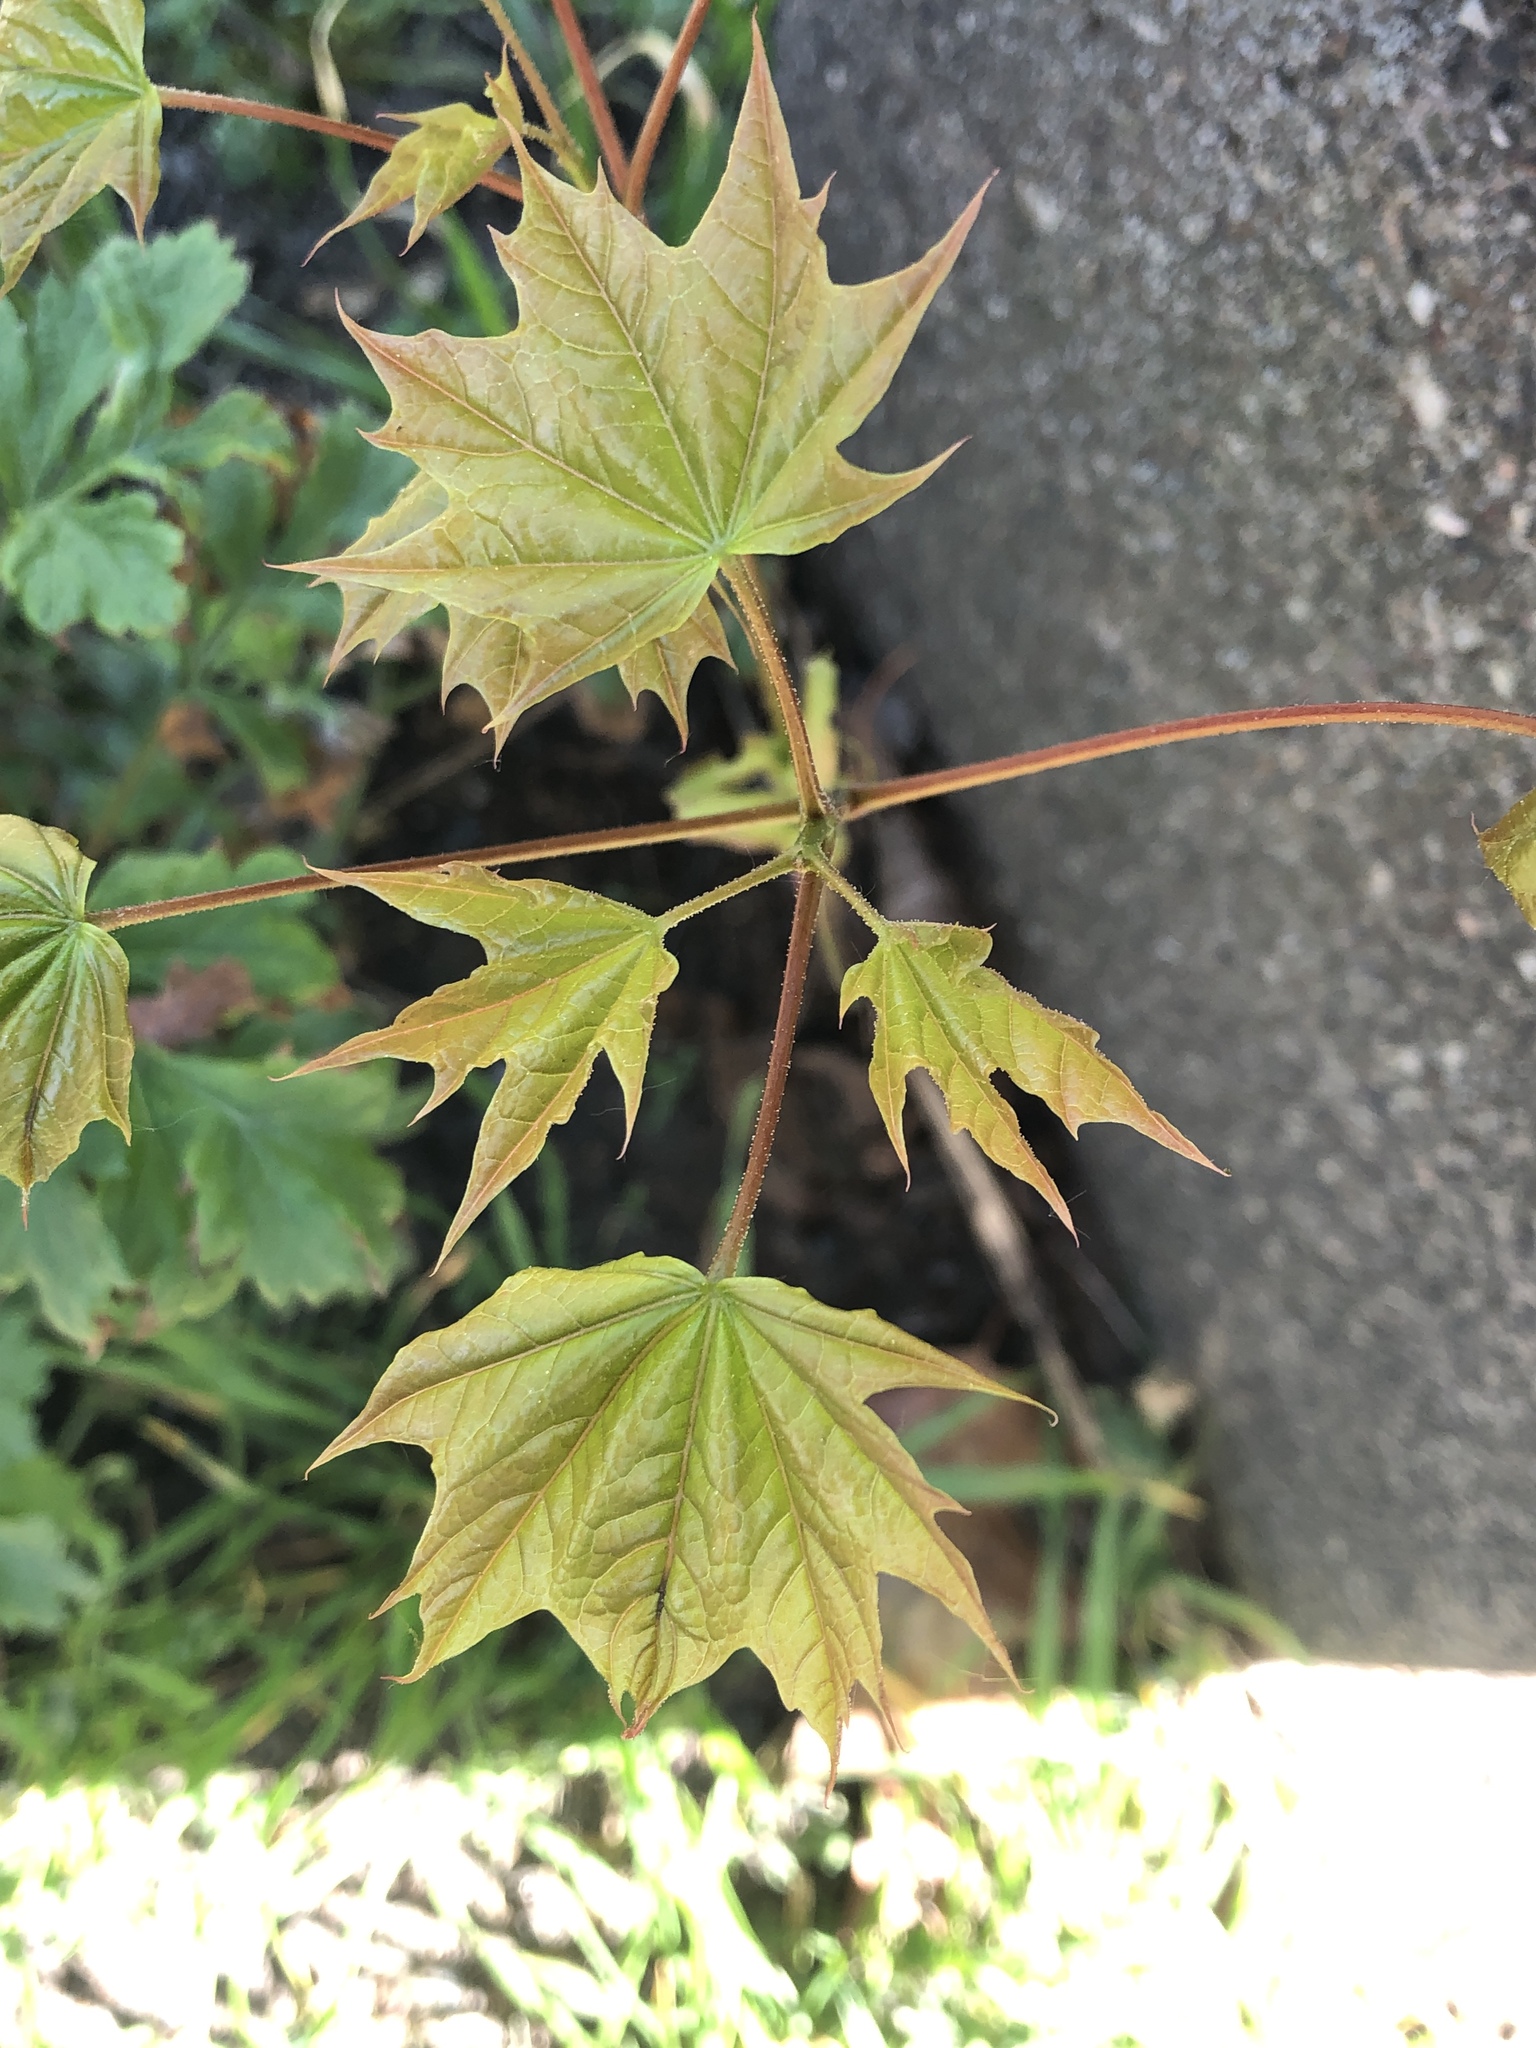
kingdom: Plantae
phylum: Tracheophyta
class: Magnoliopsida
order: Sapindales
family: Sapindaceae
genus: Acer
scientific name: Acer platanoides
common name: Norway maple
